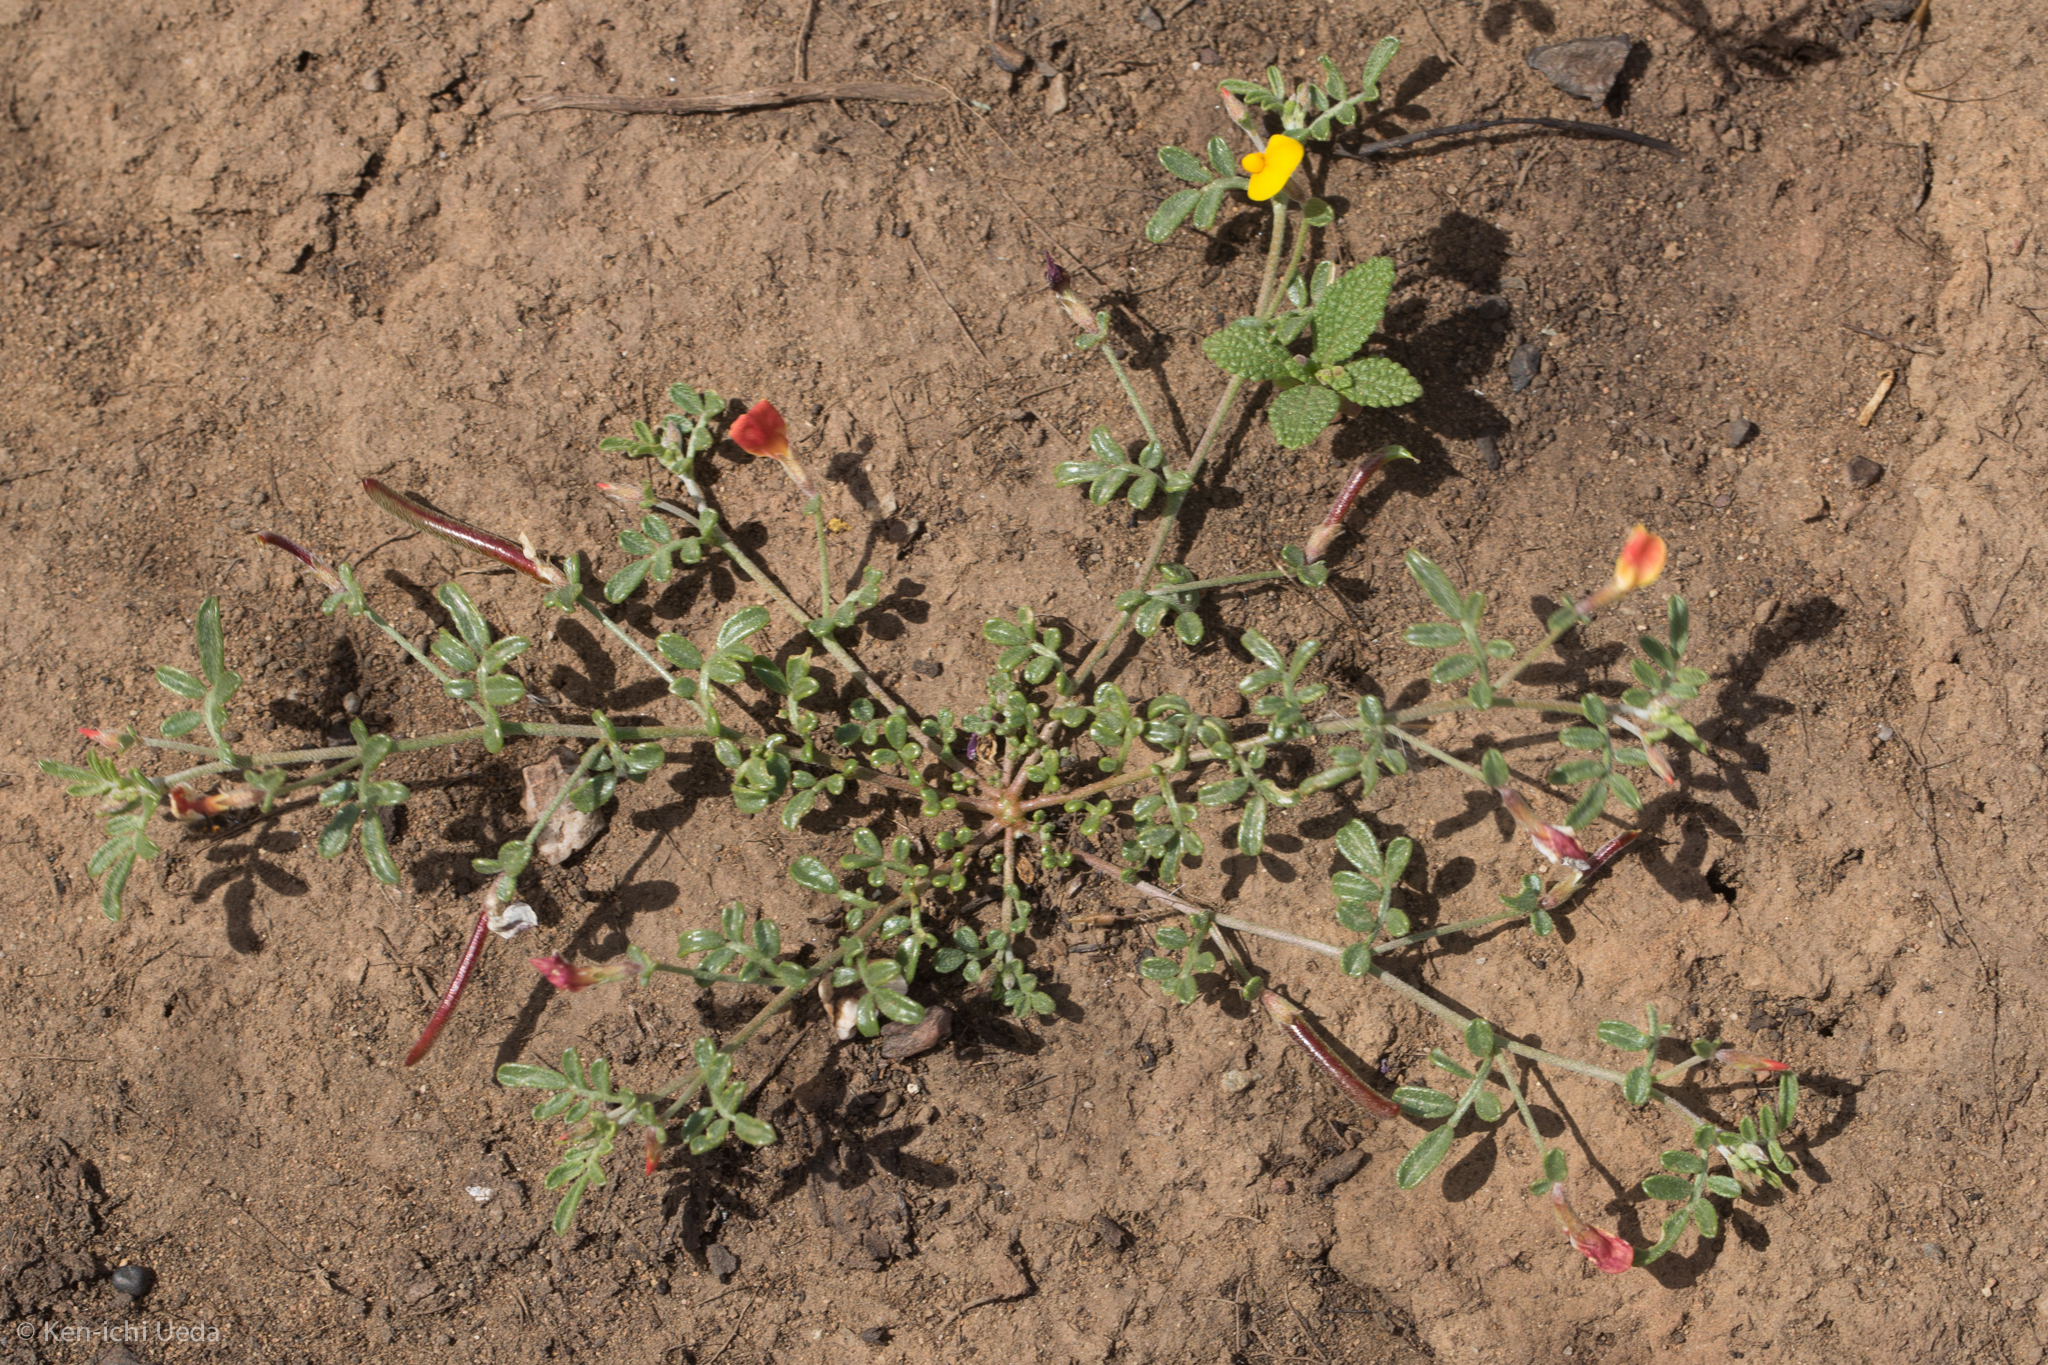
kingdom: Plantae
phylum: Tracheophyta
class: Magnoliopsida
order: Fabales
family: Fabaceae
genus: Acmispon
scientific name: Acmispon strigosus
